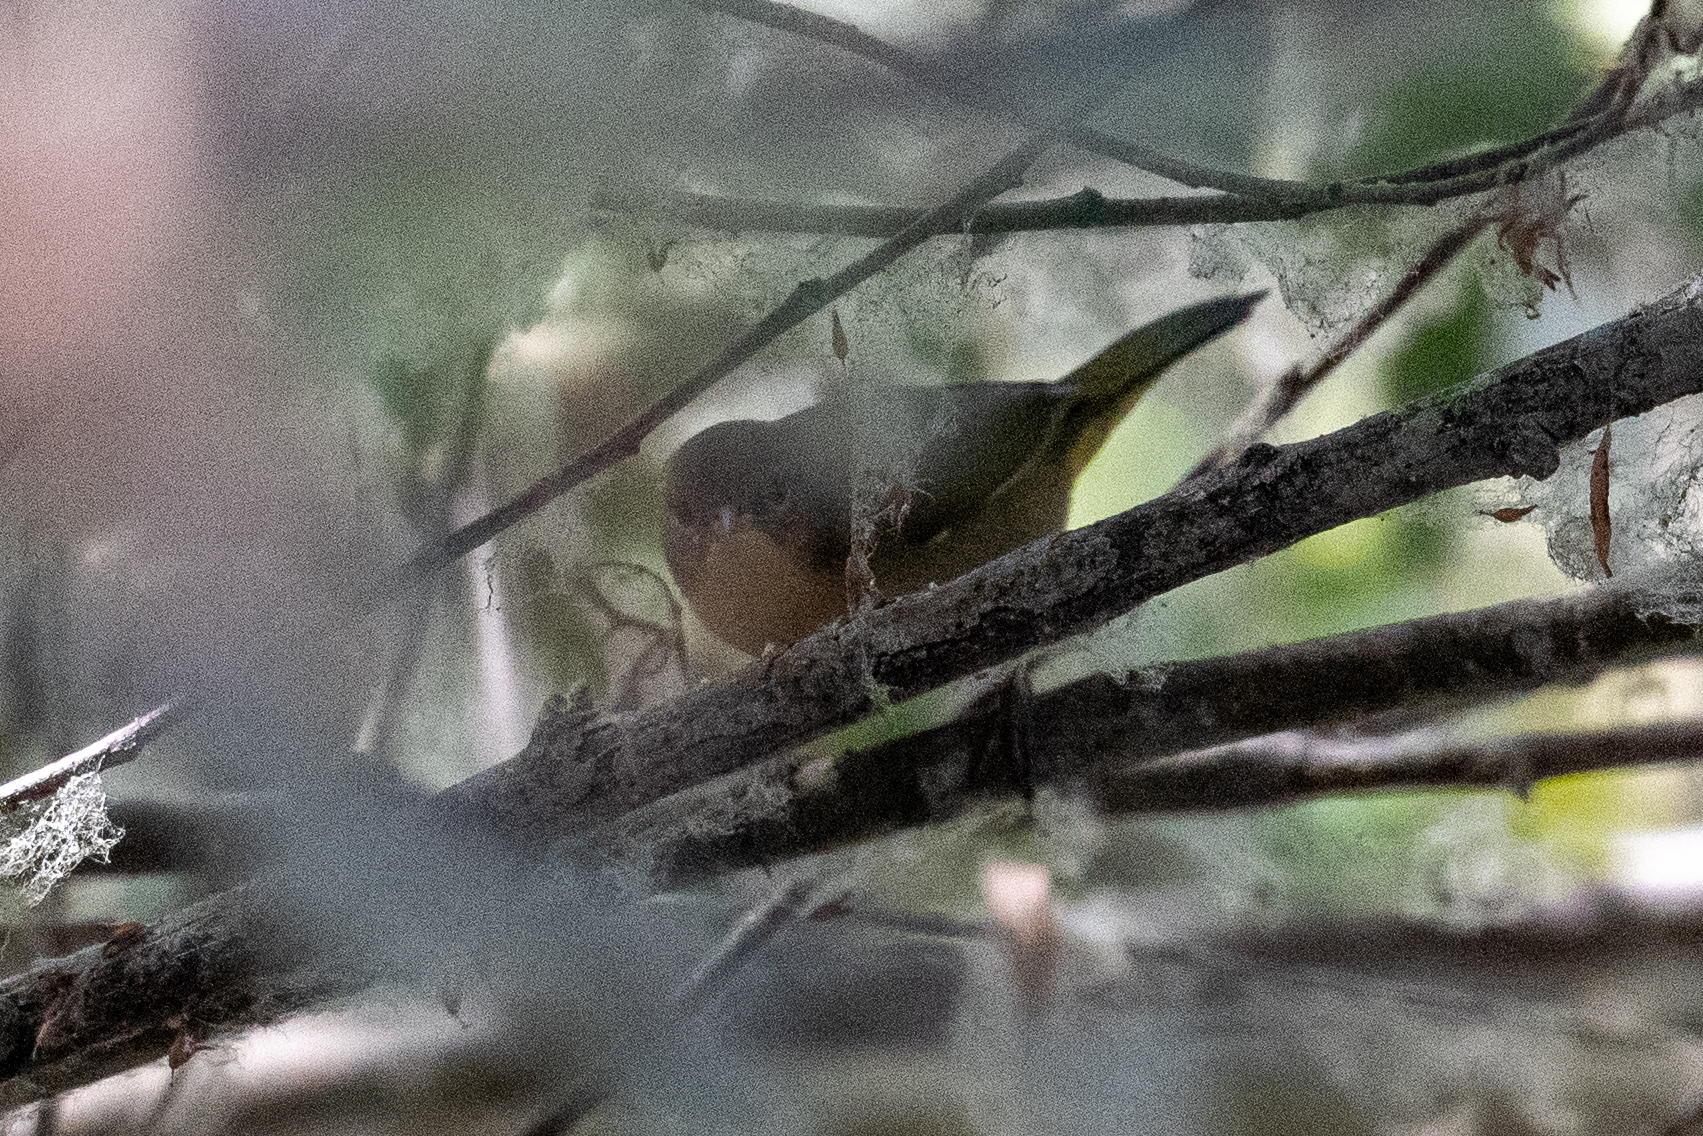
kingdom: Animalia
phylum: Chordata
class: Aves
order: Passeriformes
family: Parulidae
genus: Geothlypis
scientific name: Geothlypis trichas
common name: Common yellowthroat
